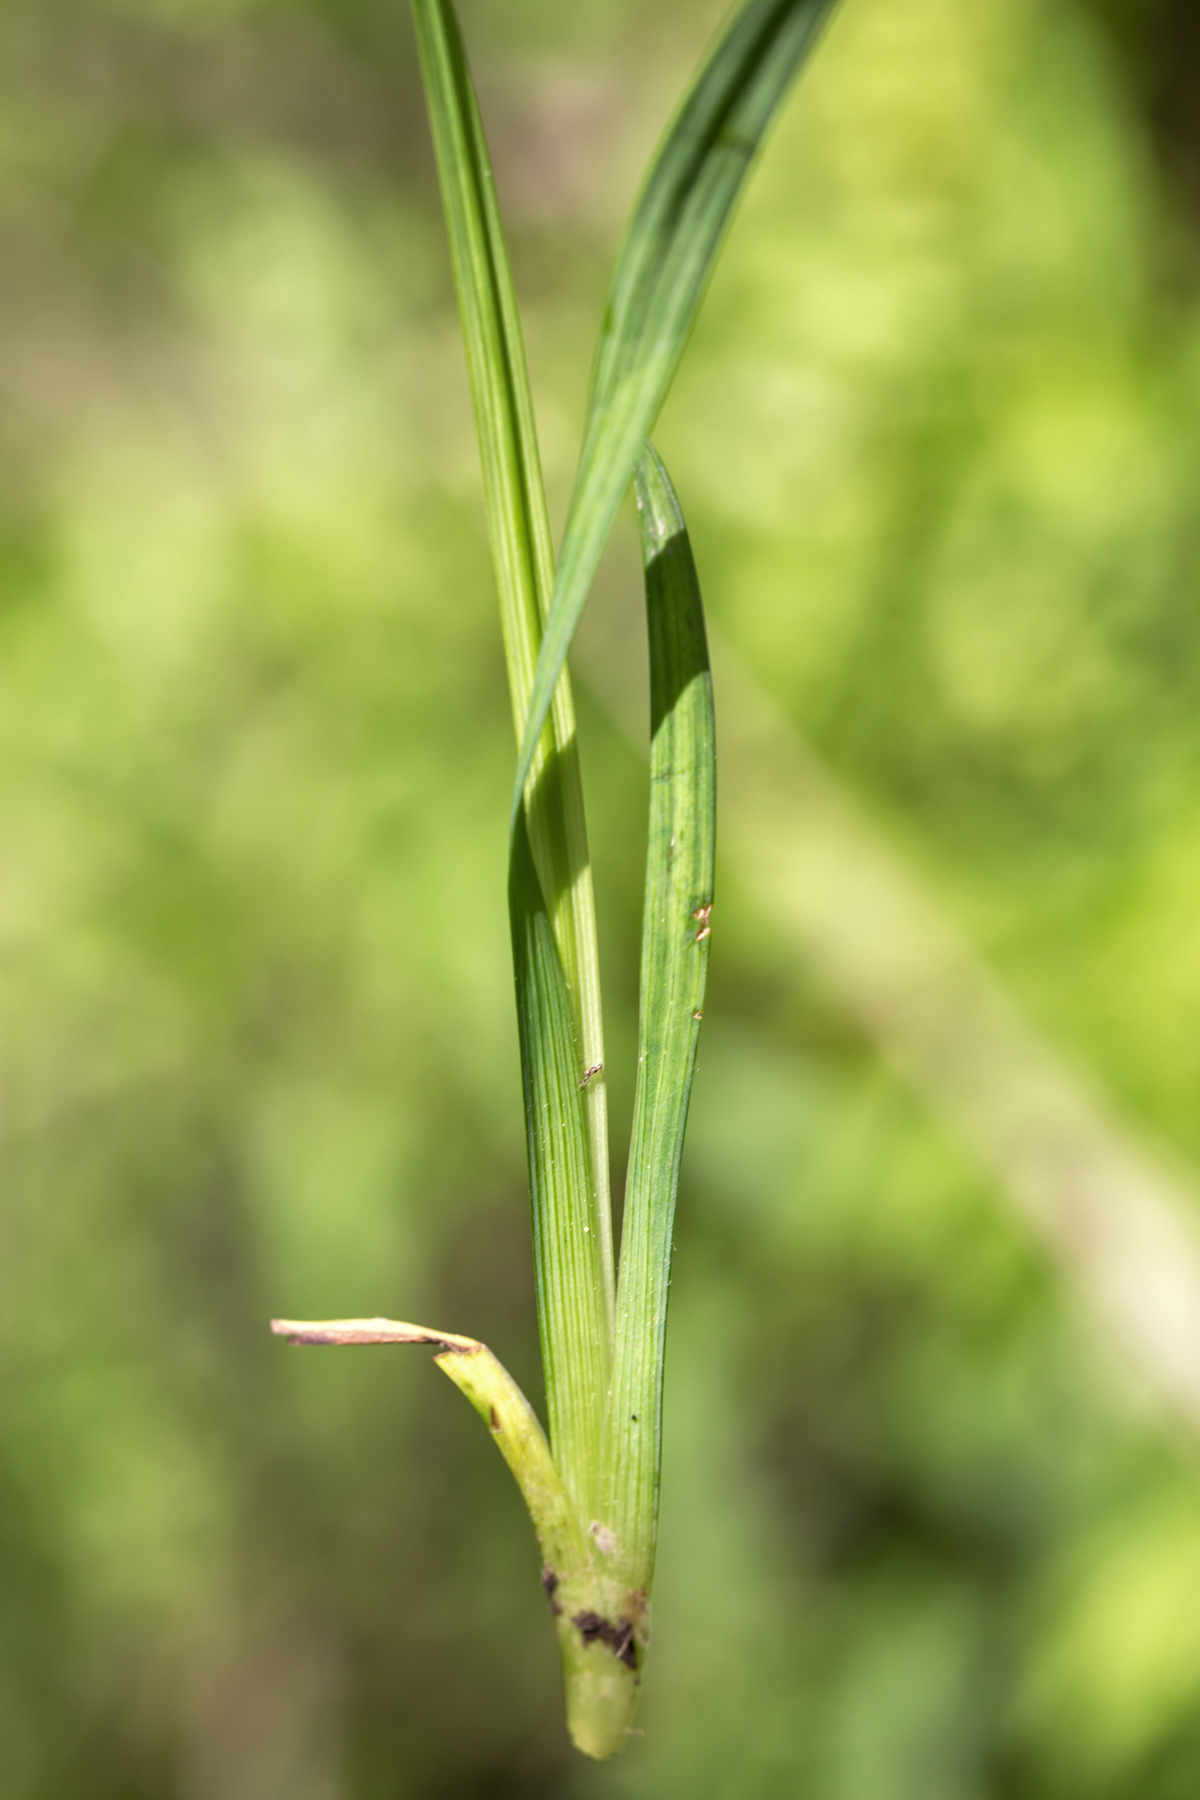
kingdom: Plantae
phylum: Tracheophyta
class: Liliopsida
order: Asparagales
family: Iridaceae
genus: Sisyrinchium
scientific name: Sisyrinchium angustifolium
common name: Narrow-leaf blue-eyed-grass
